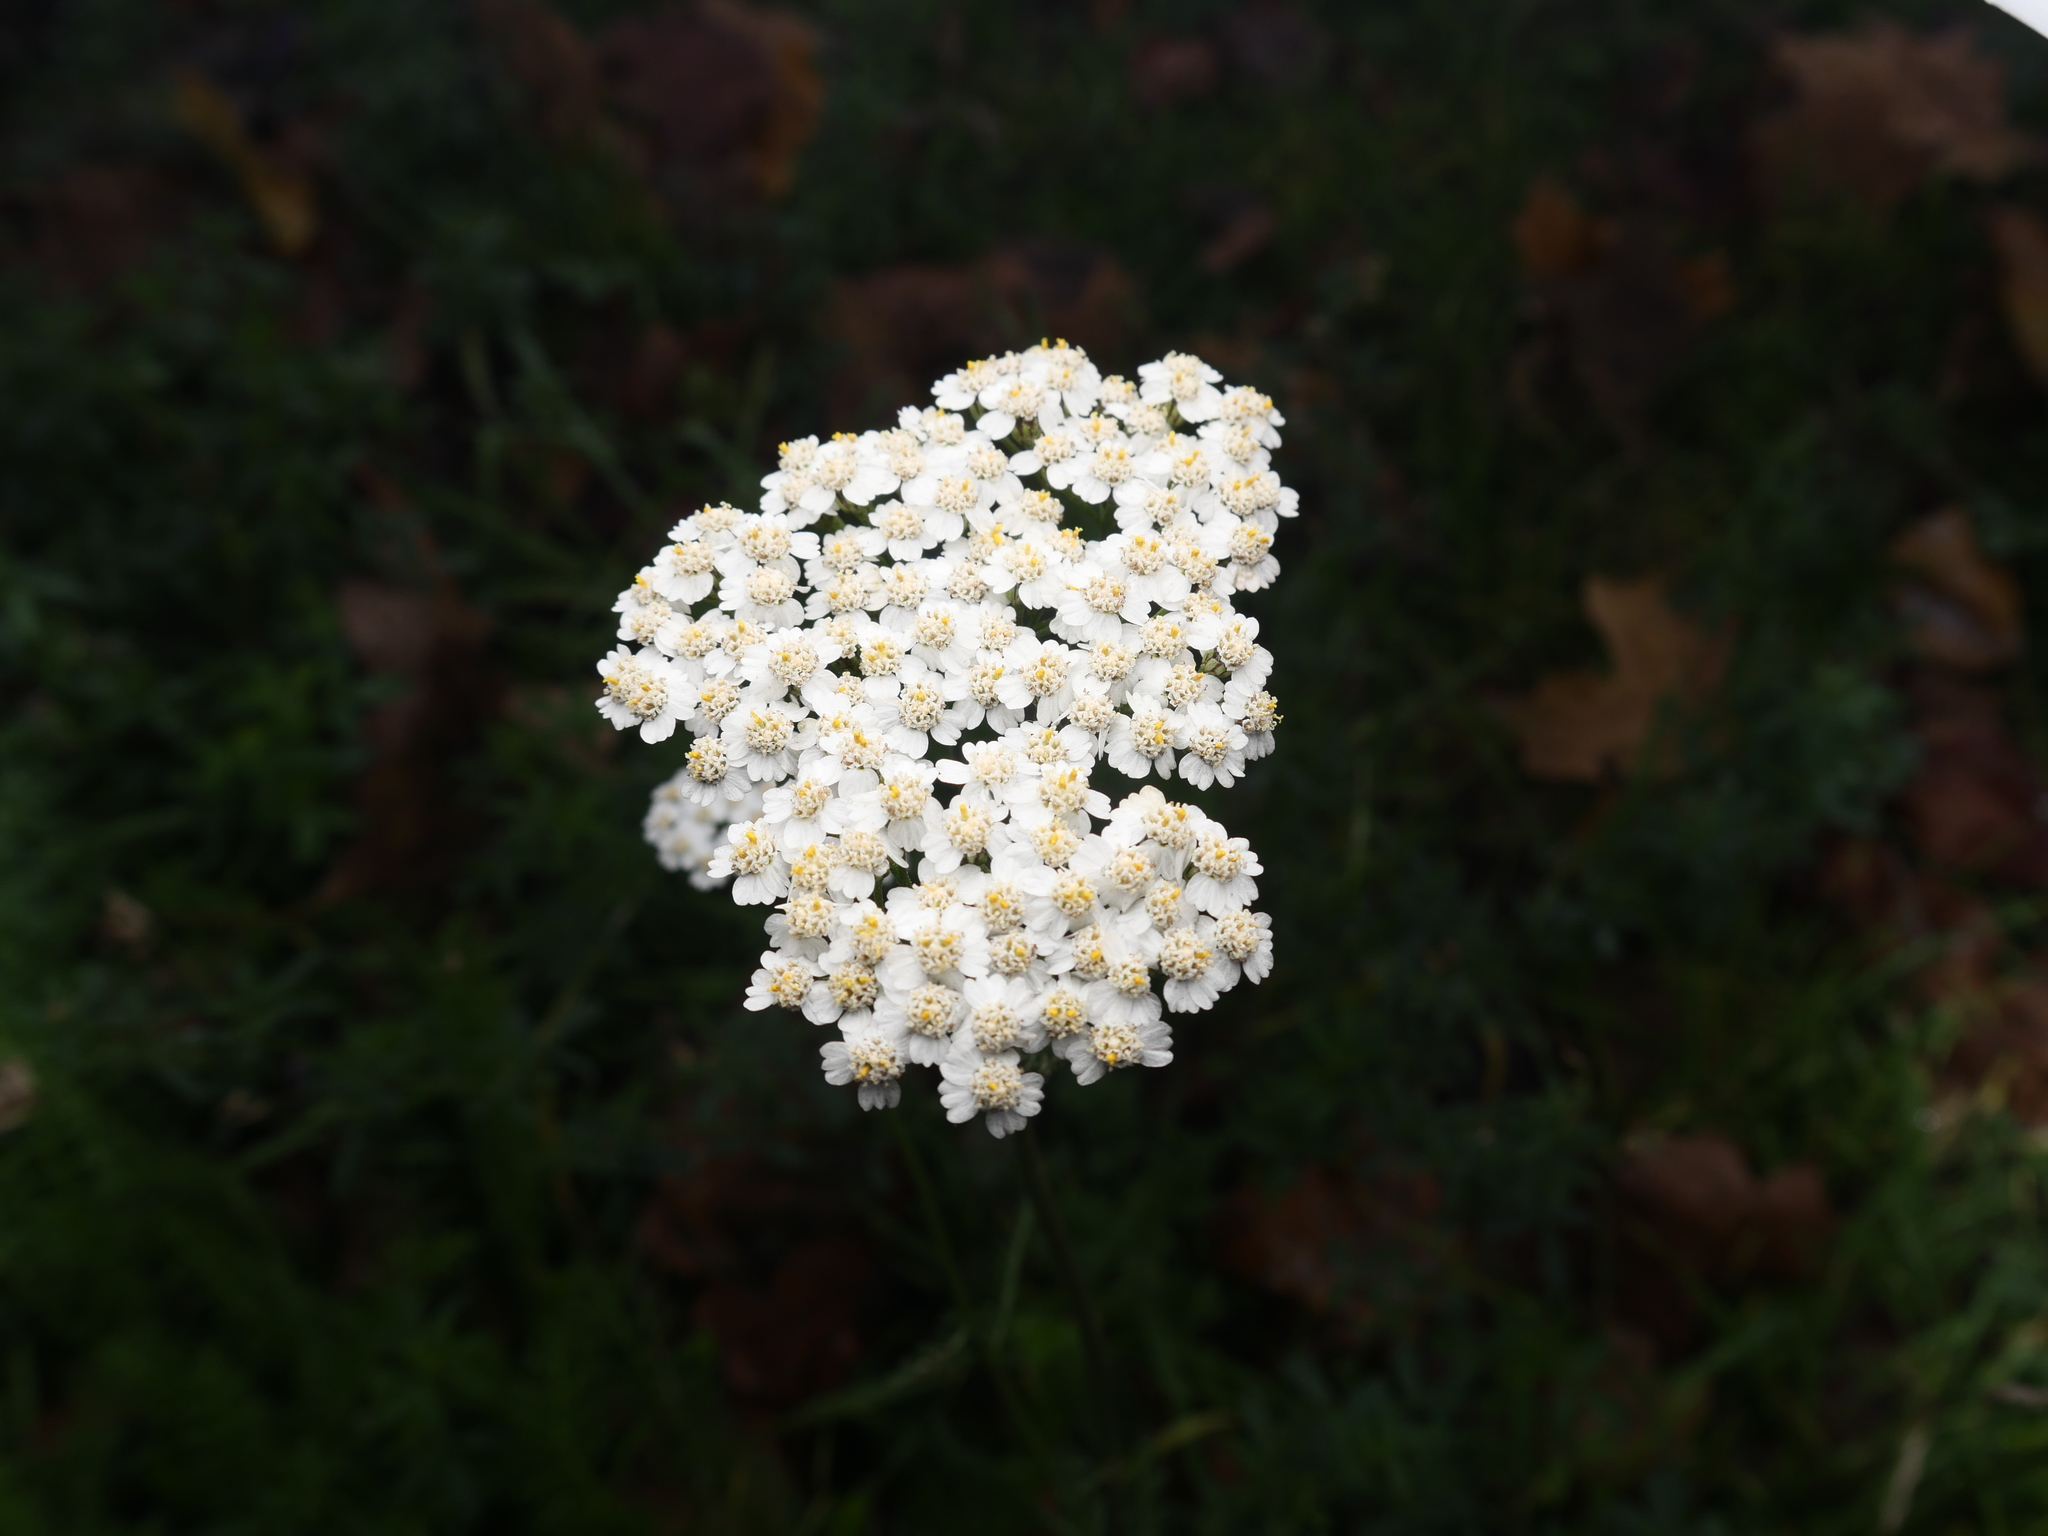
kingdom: Plantae
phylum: Tracheophyta
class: Magnoliopsida
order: Asterales
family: Asteraceae
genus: Achillea
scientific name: Achillea millefolium
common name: Yarrow
